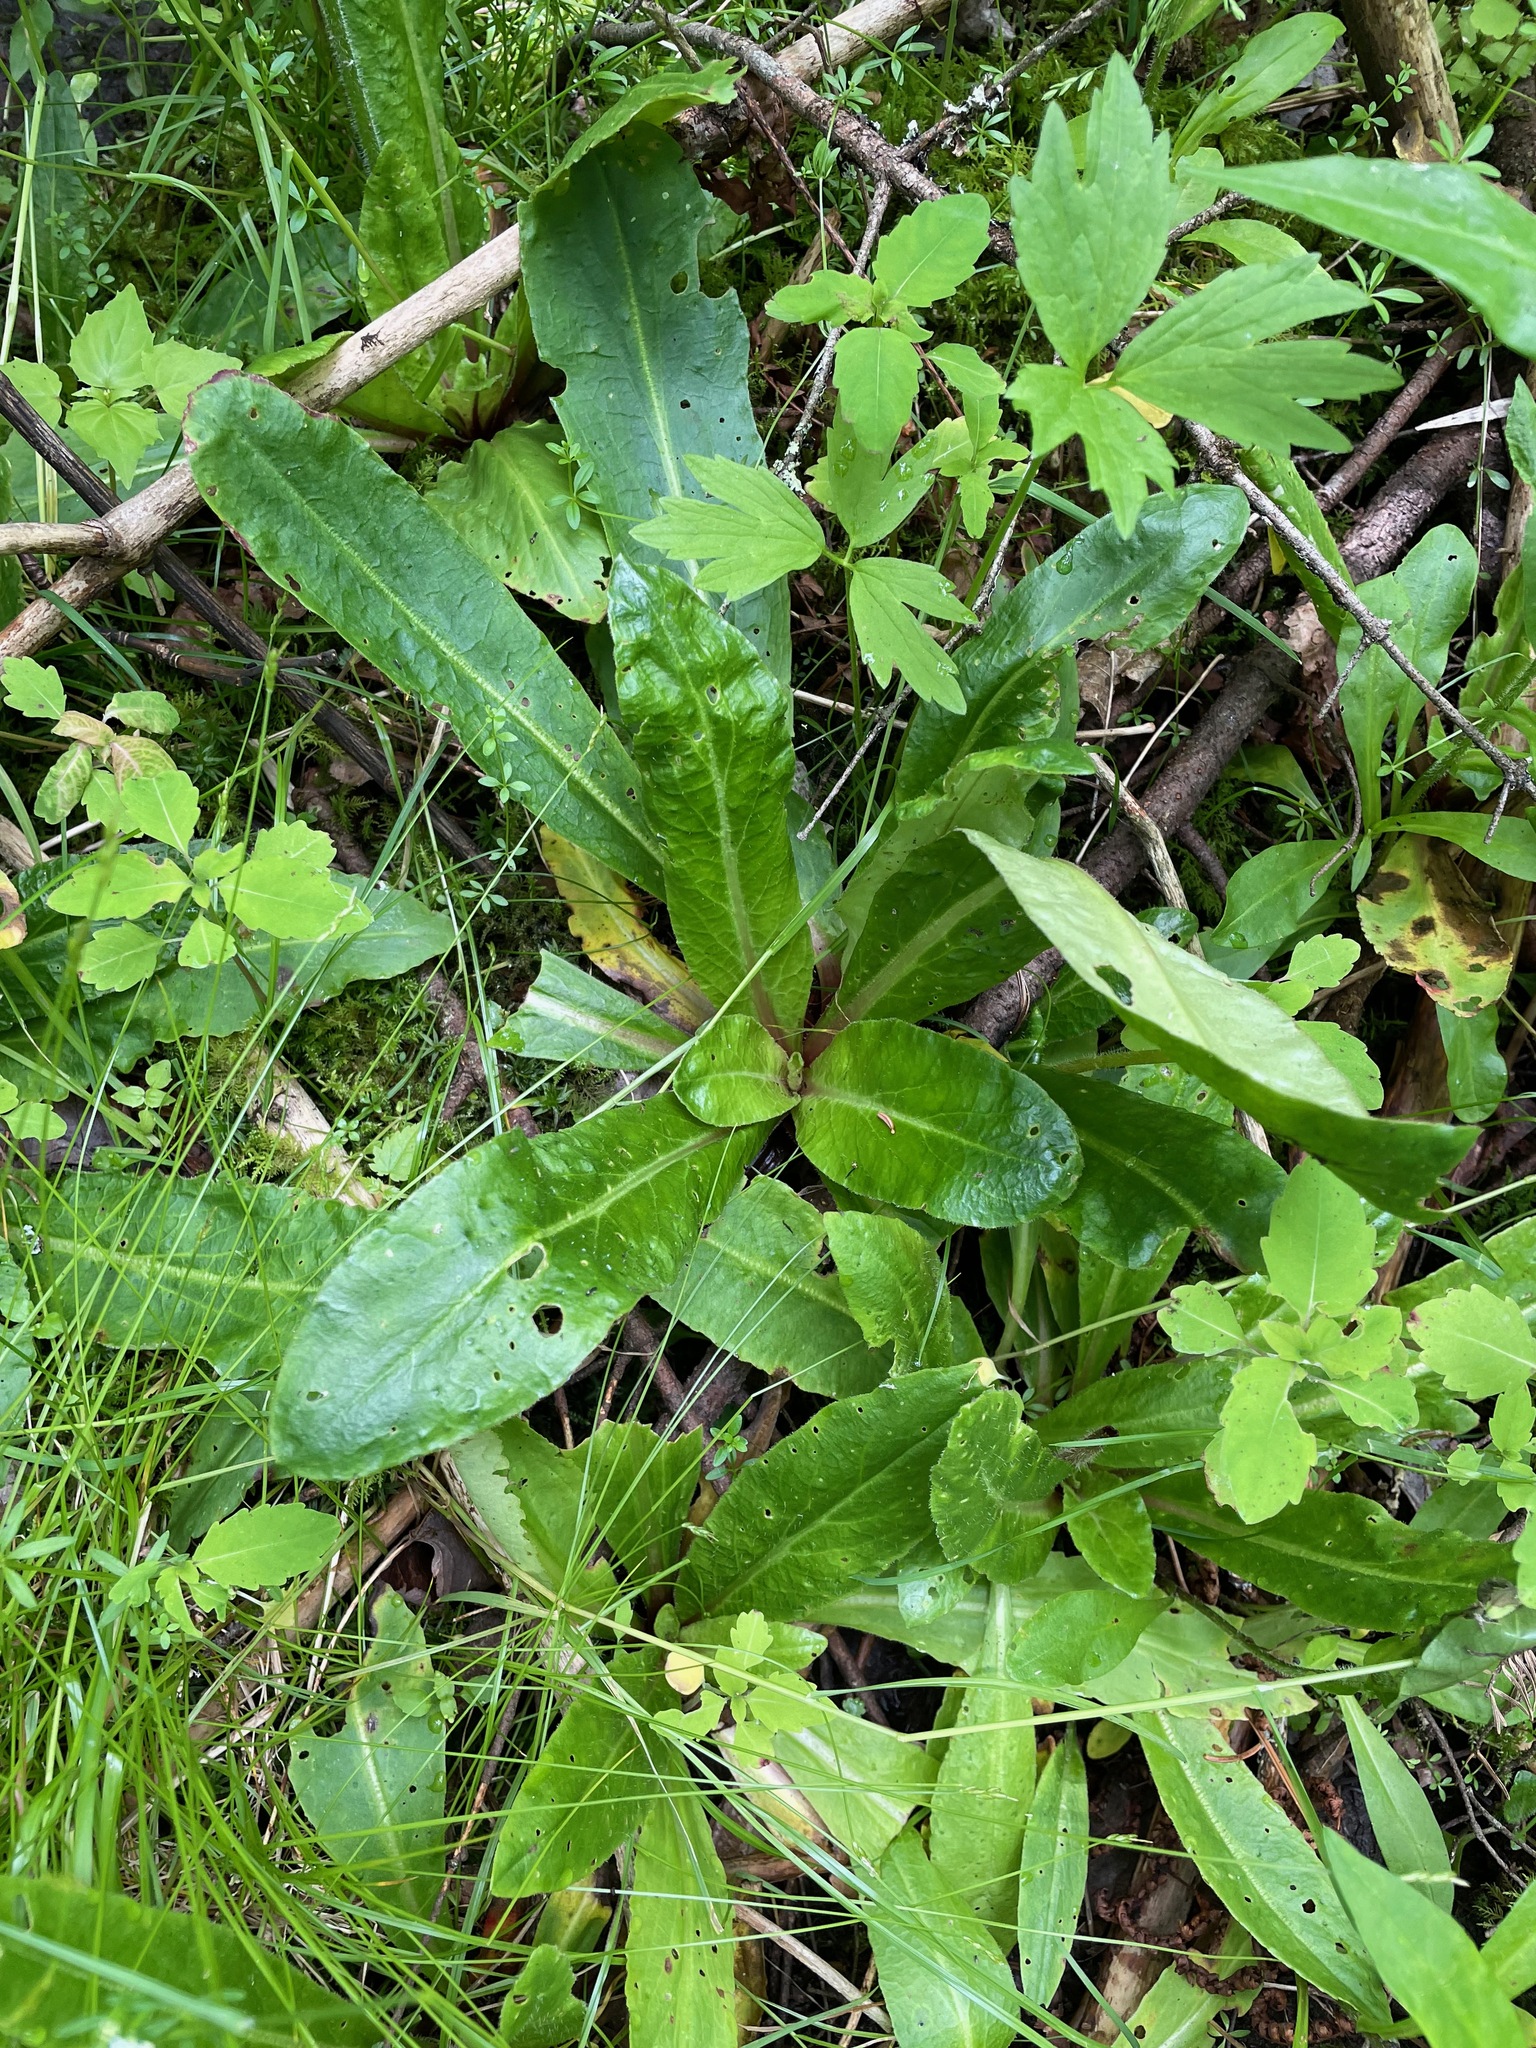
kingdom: Plantae
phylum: Tracheophyta
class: Magnoliopsida
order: Saxifragales
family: Saxifragaceae
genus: Micranthes
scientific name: Micranthes pensylvanica
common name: Marsh saxifrage
